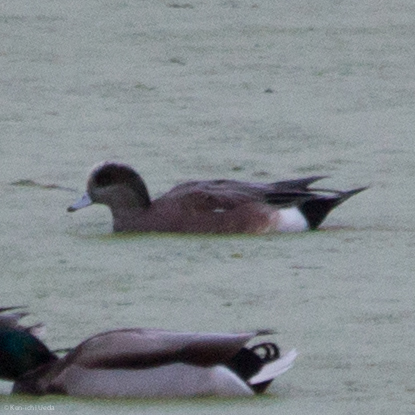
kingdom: Animalia
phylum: Chordata
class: Aves
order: Anseriformes
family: Anatidae
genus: Mareca
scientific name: Mareca americana
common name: American wigeon
